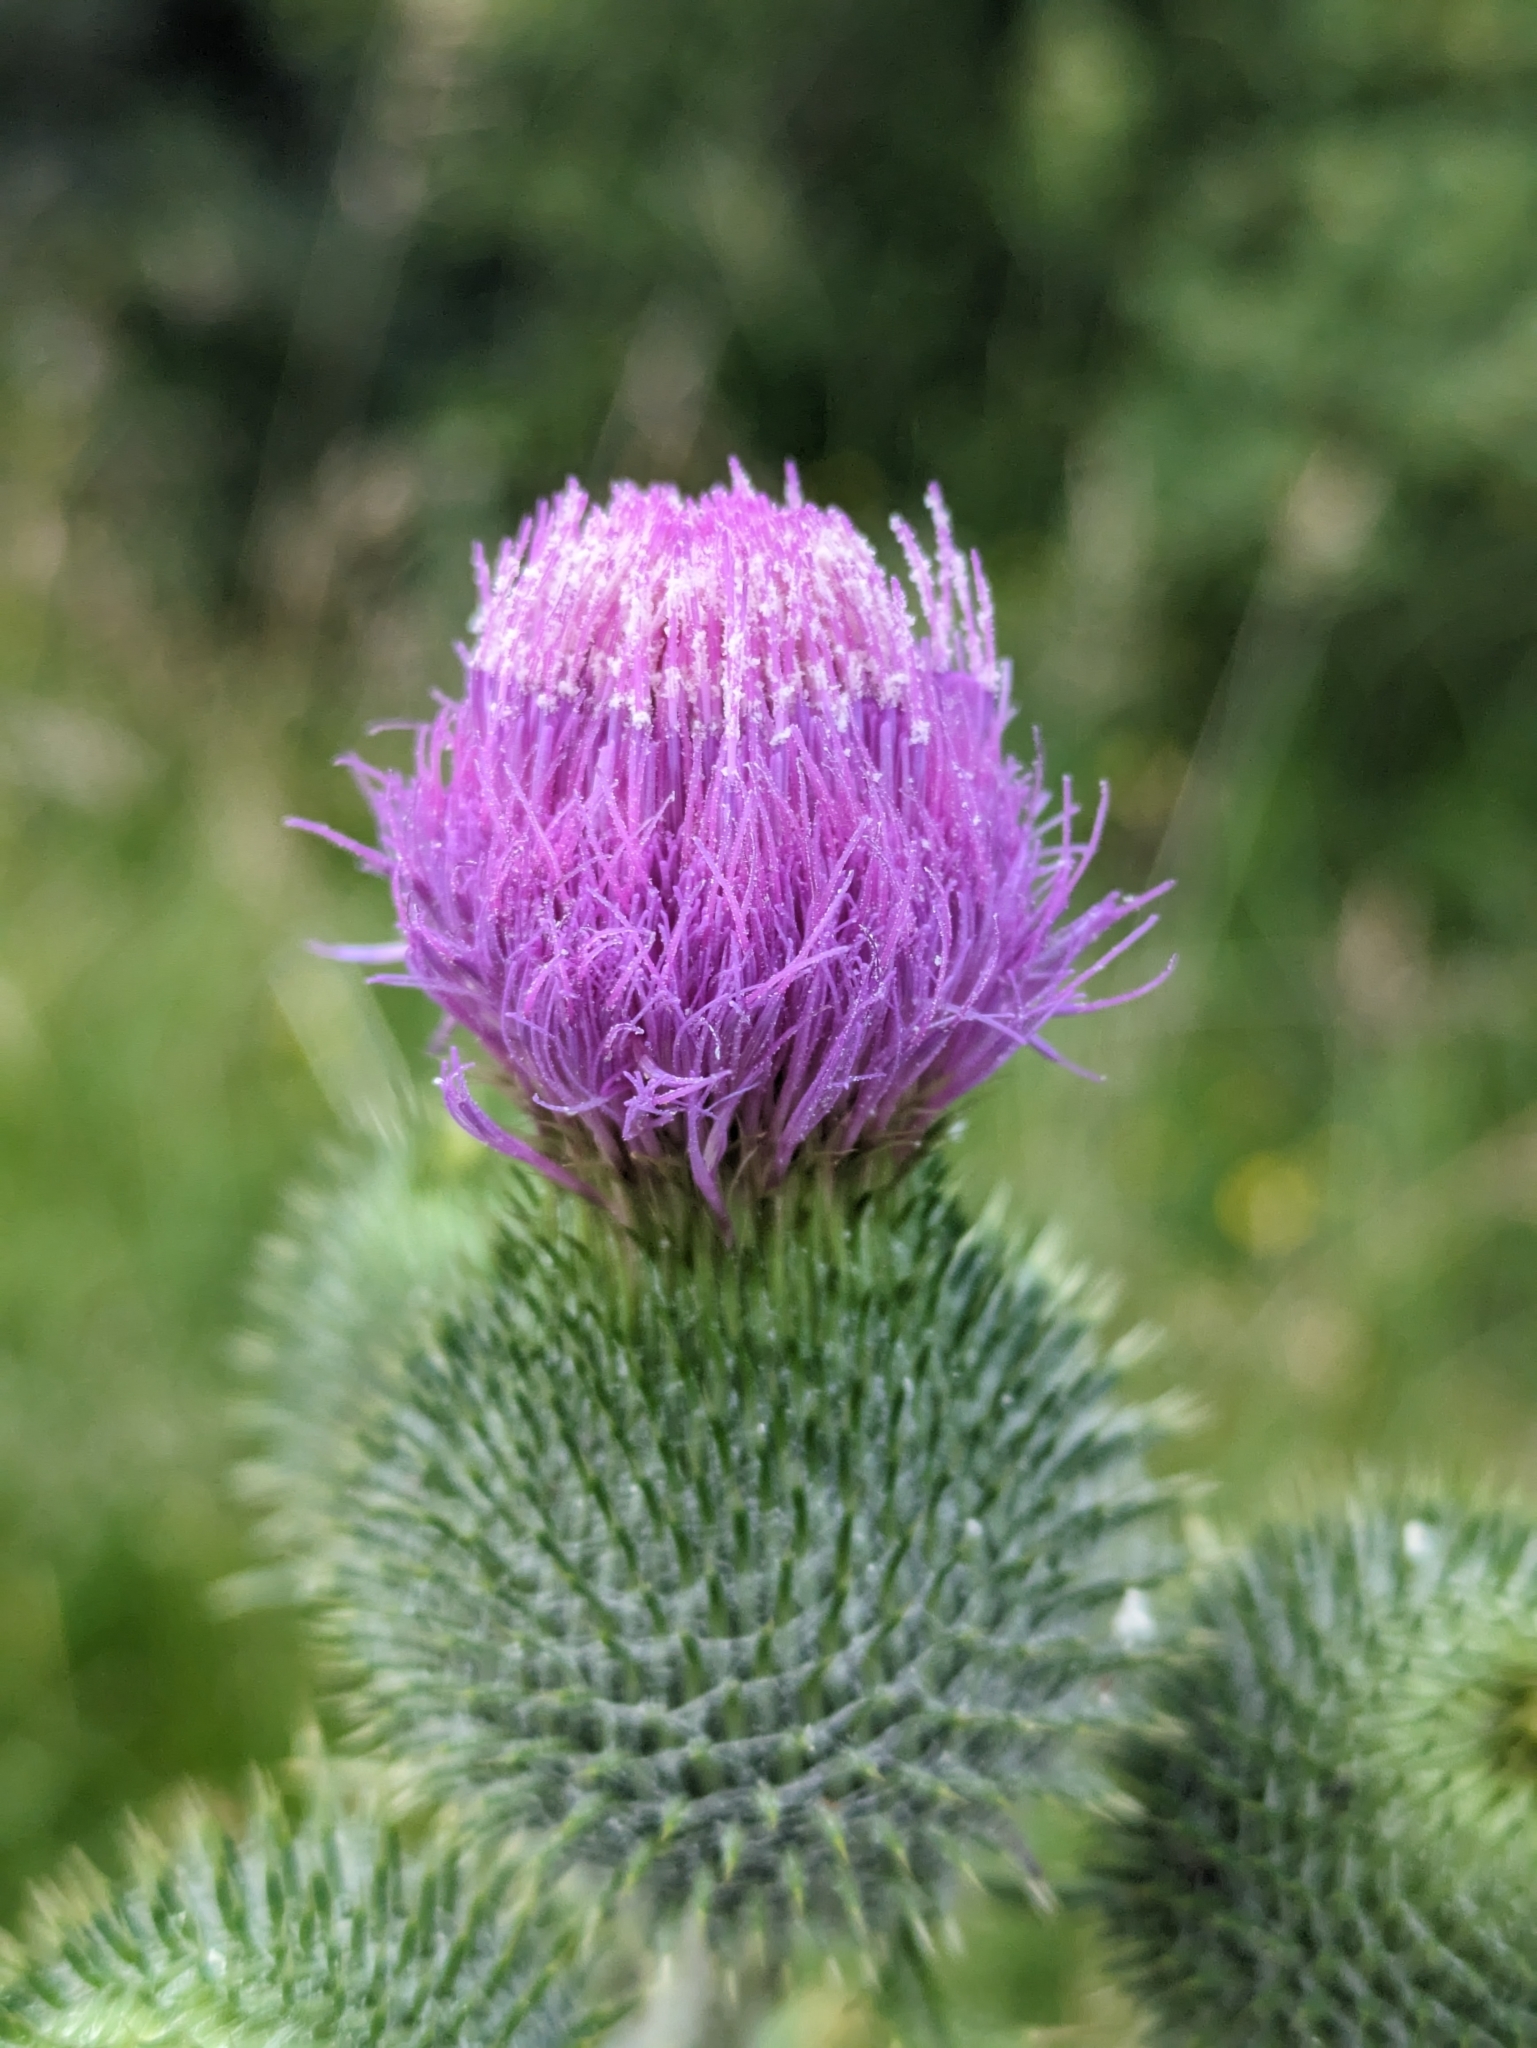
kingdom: Plantae
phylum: Tracheophyta
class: Magnoliopsida
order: Asterales
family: Asteraceae
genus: Cirsium
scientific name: Cirsium vulgare
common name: Bull thistle
